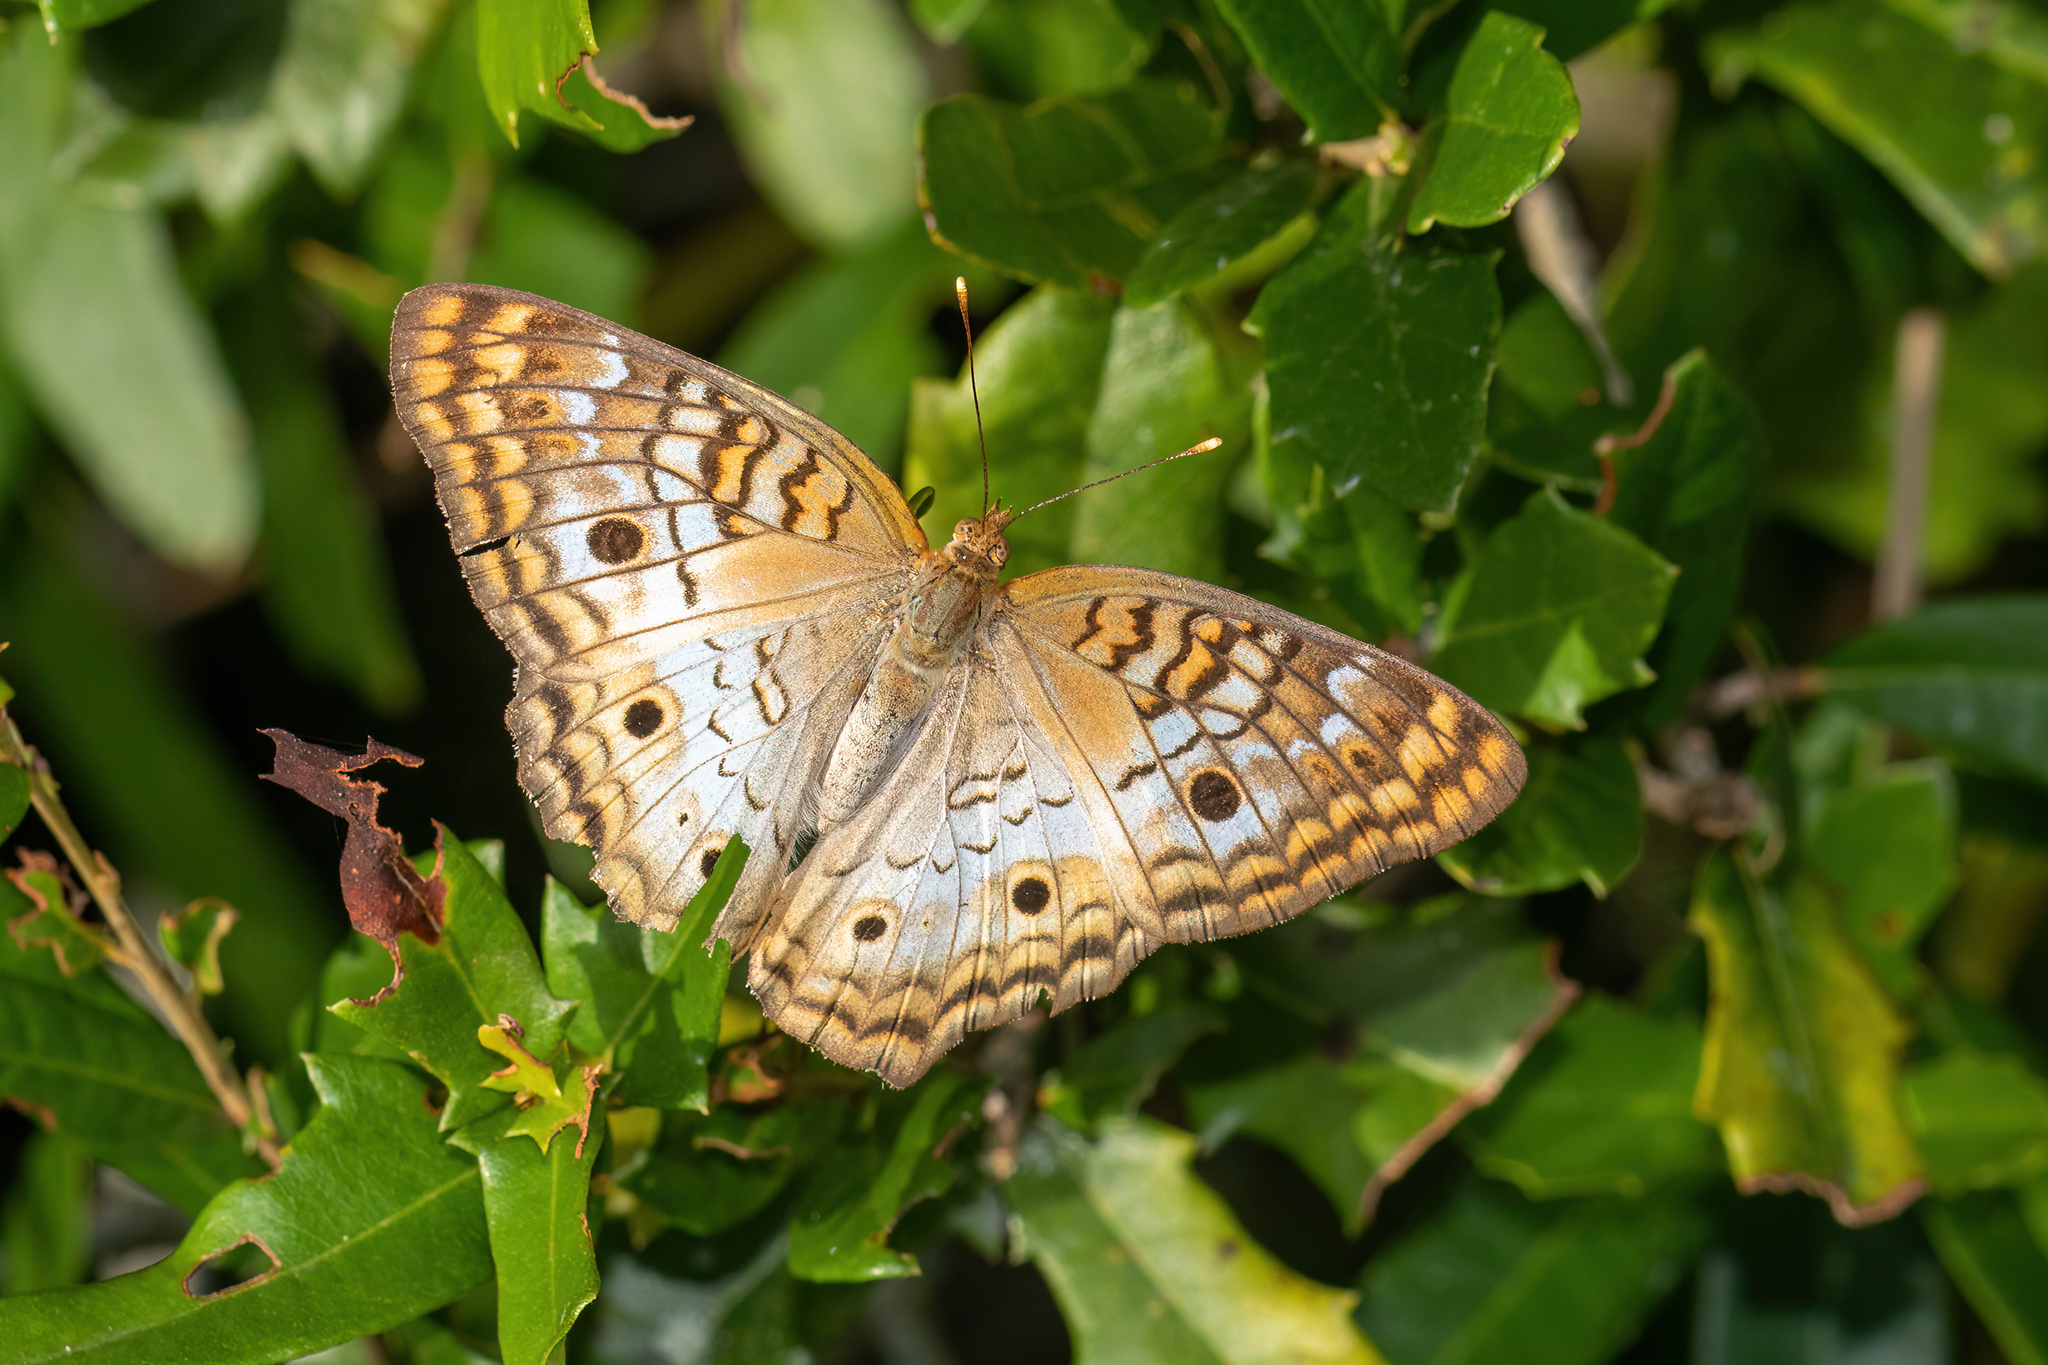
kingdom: Animalia
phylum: Arthropoda
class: Insecta
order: Lepidoptera
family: Nymphalidae
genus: Anartia
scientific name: Anartia jatrophae
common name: White peacock
